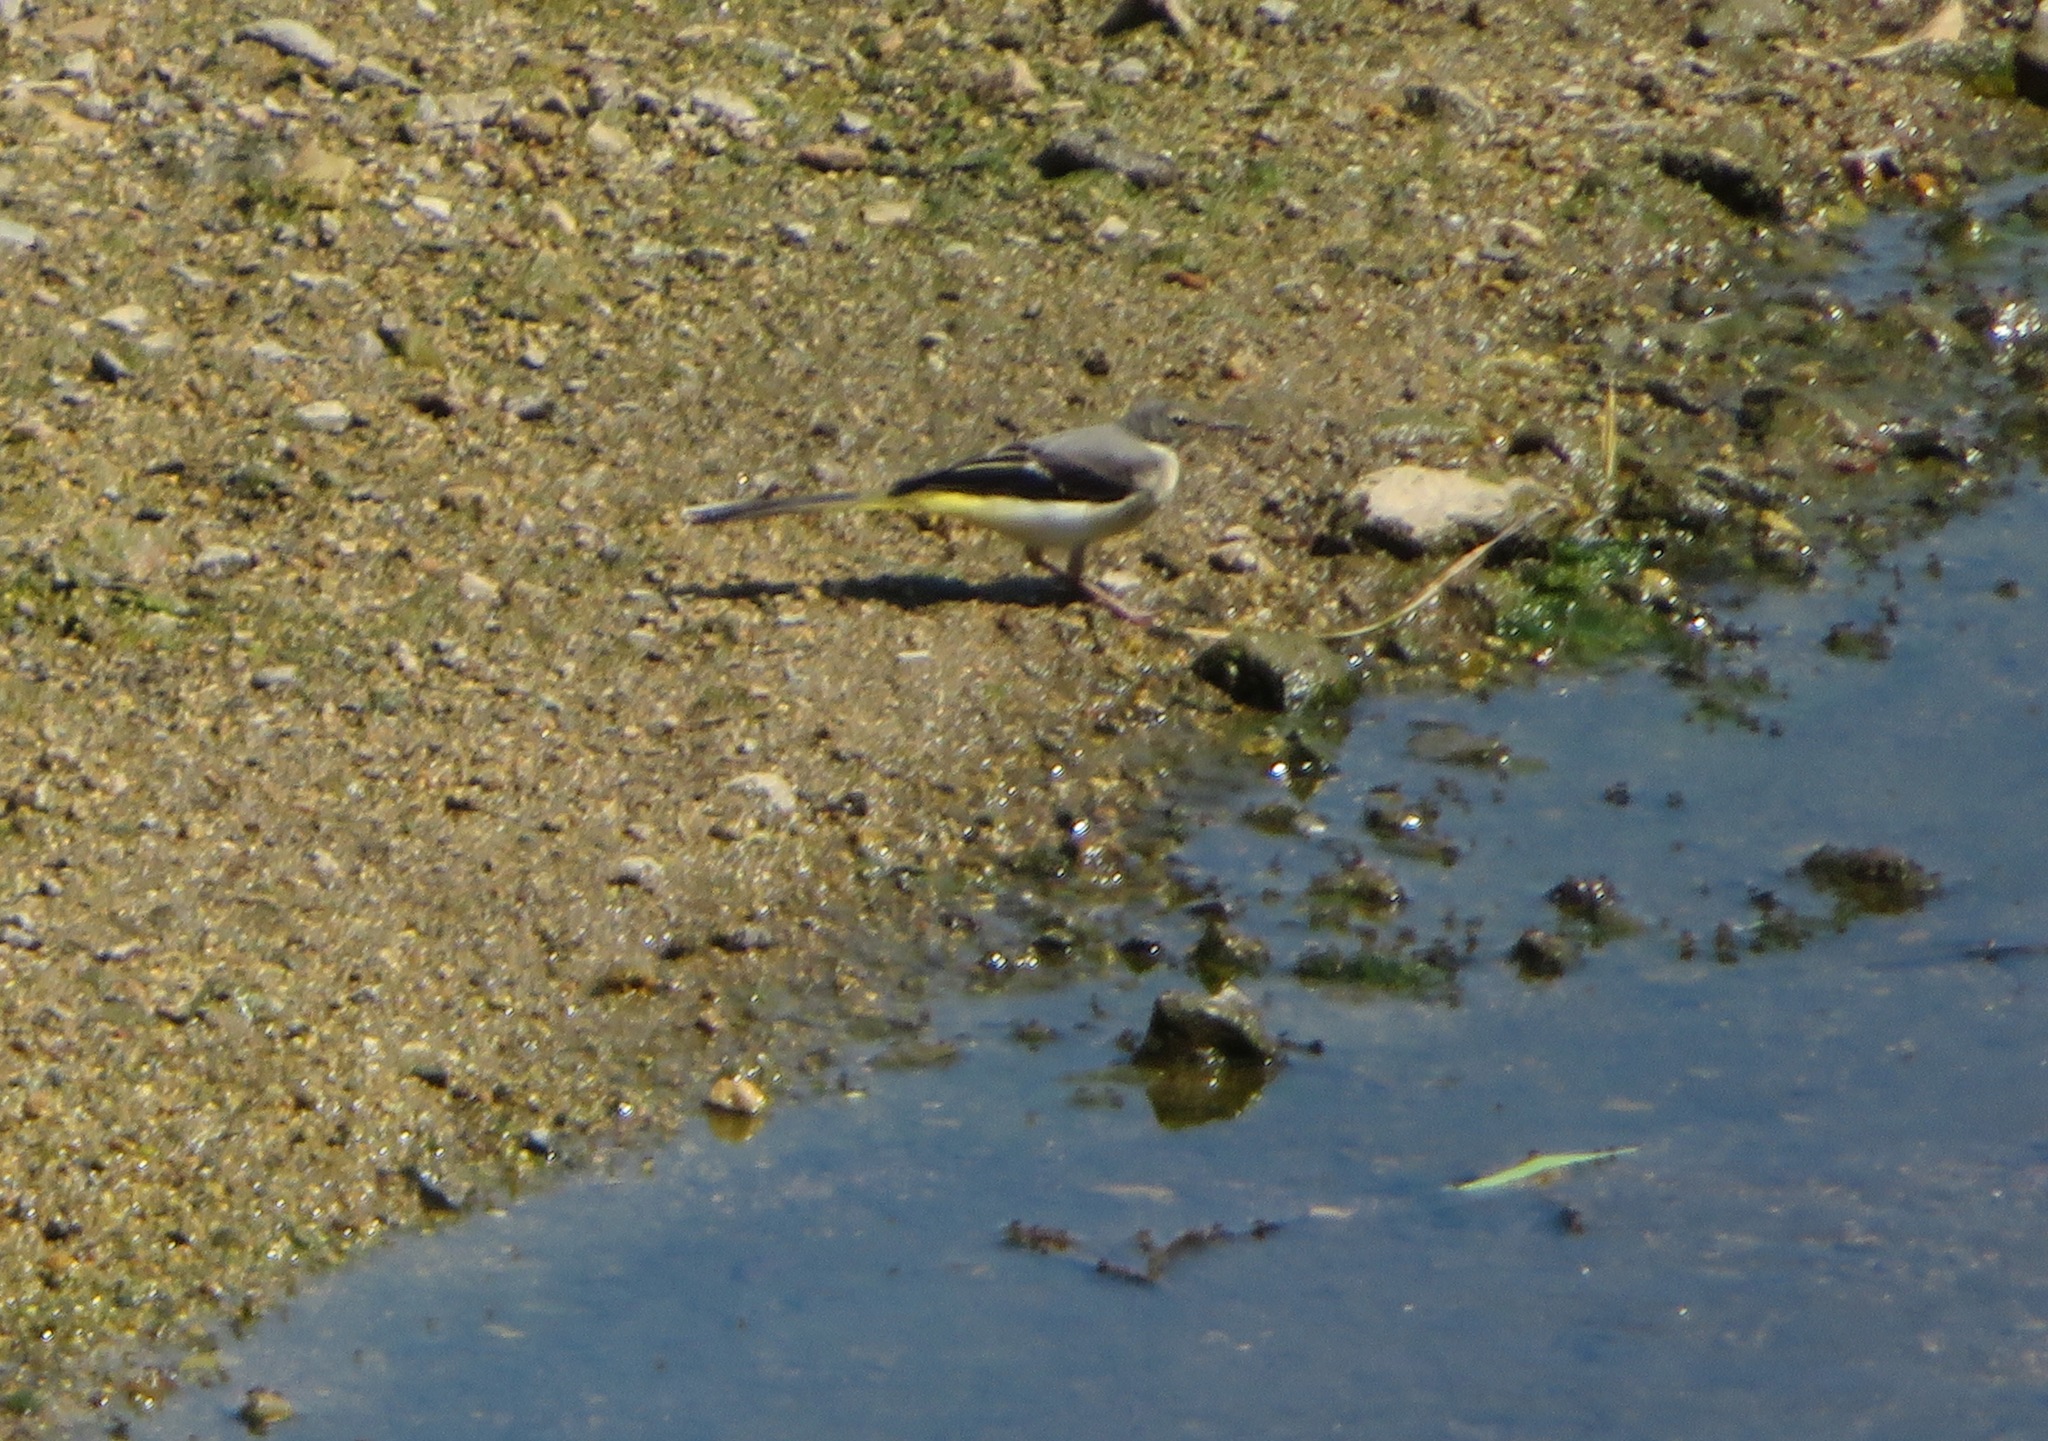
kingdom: Animalia
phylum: Chordata
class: Aves
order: Passeriformes
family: Motacillidae
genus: Motacilla
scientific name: Motacilla cinerea
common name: Grey wagtail
